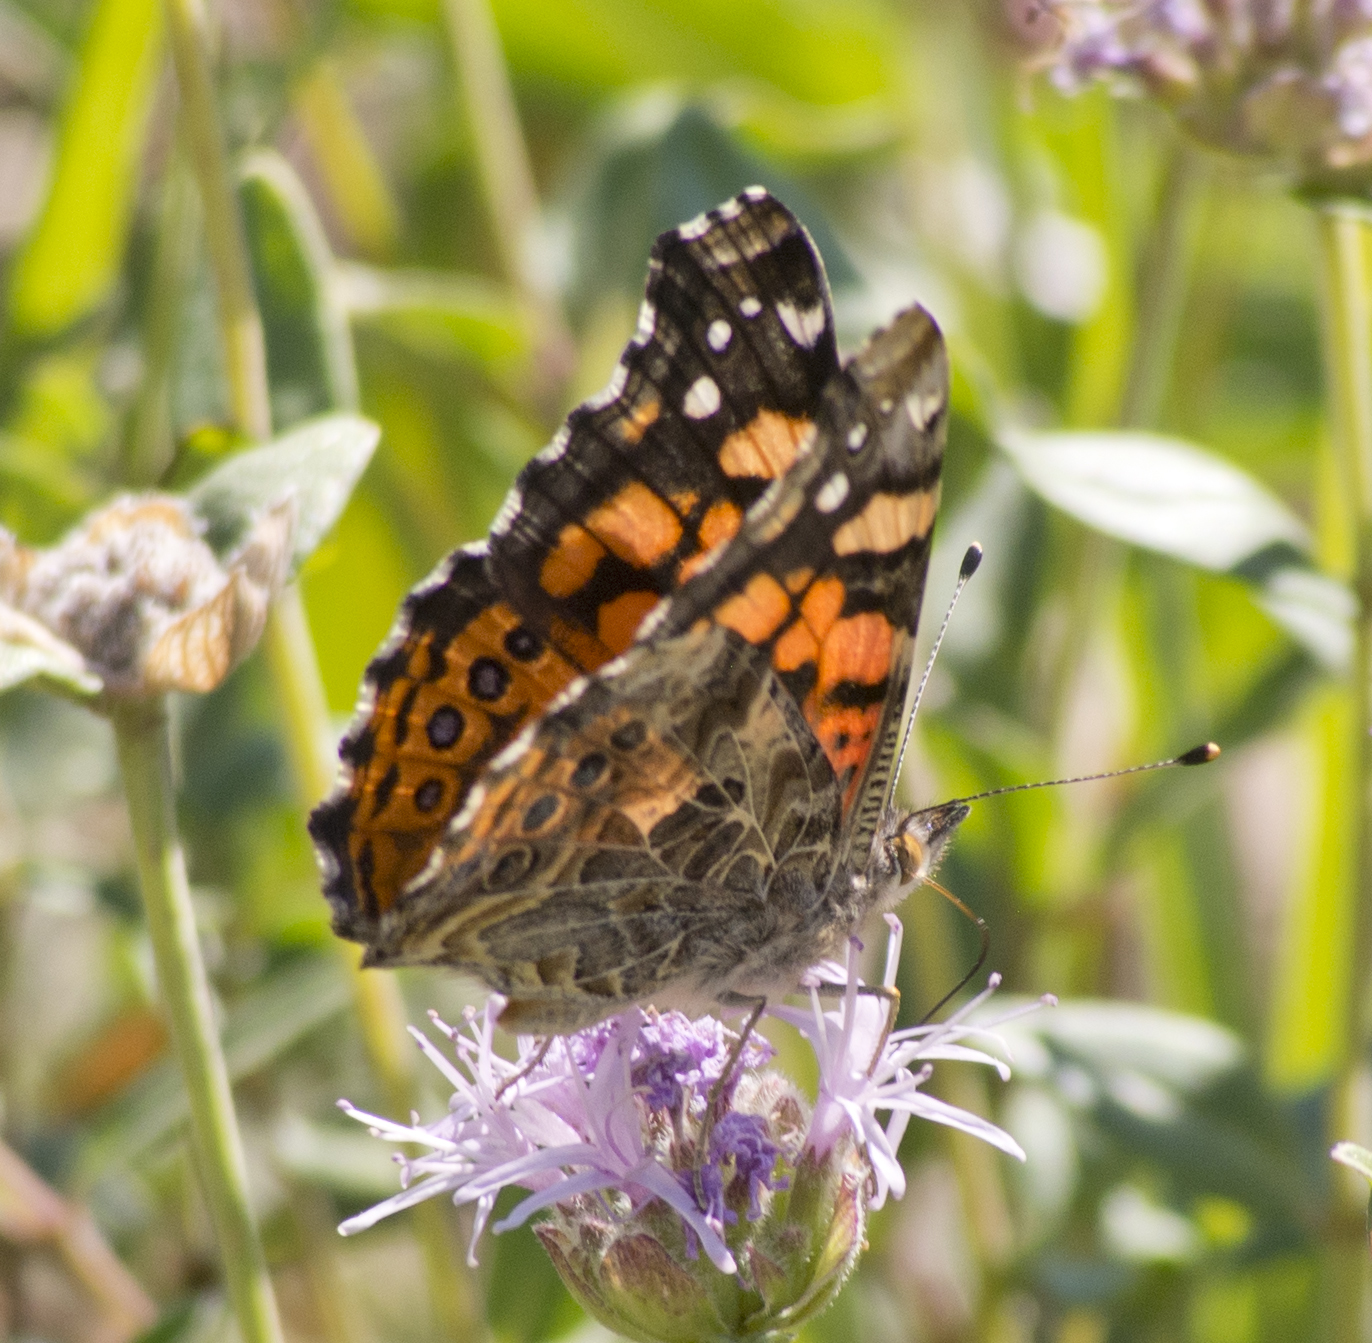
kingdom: Animalia
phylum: Arthropoda
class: Insecta
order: Lepidoptera
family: Nymphalidae
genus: Vanessa
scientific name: Vanessa annabella
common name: West coast lady
